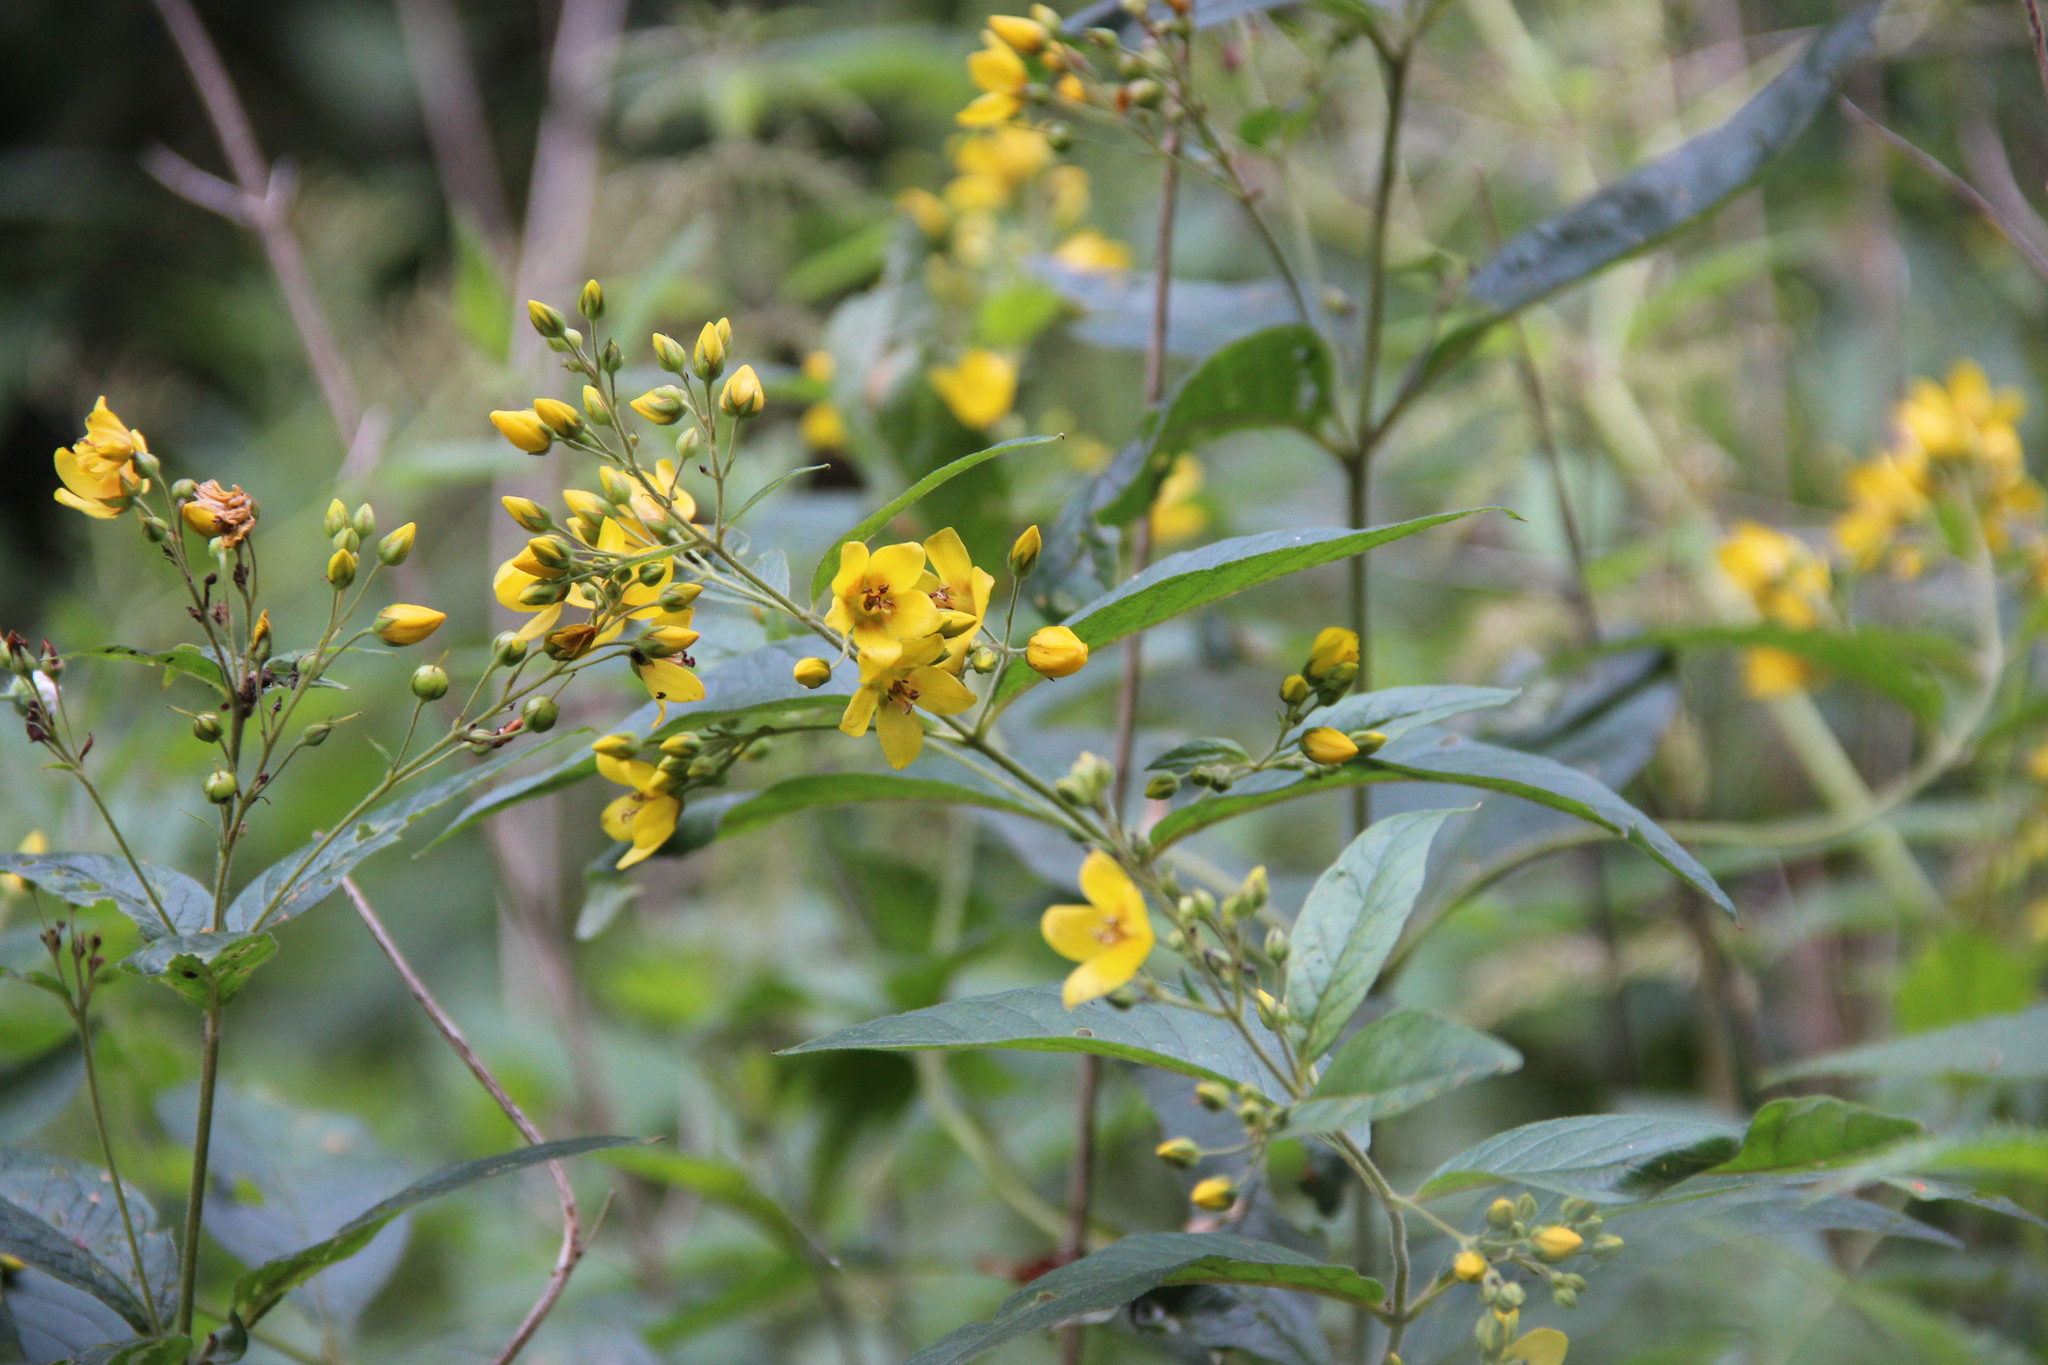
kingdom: Plantae
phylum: Tracheophyta
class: Magnoliopsida
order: Ericales
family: Primulaceae
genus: Lysimachia
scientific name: Lysimachia vulgaris
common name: Yellow loosestrife
